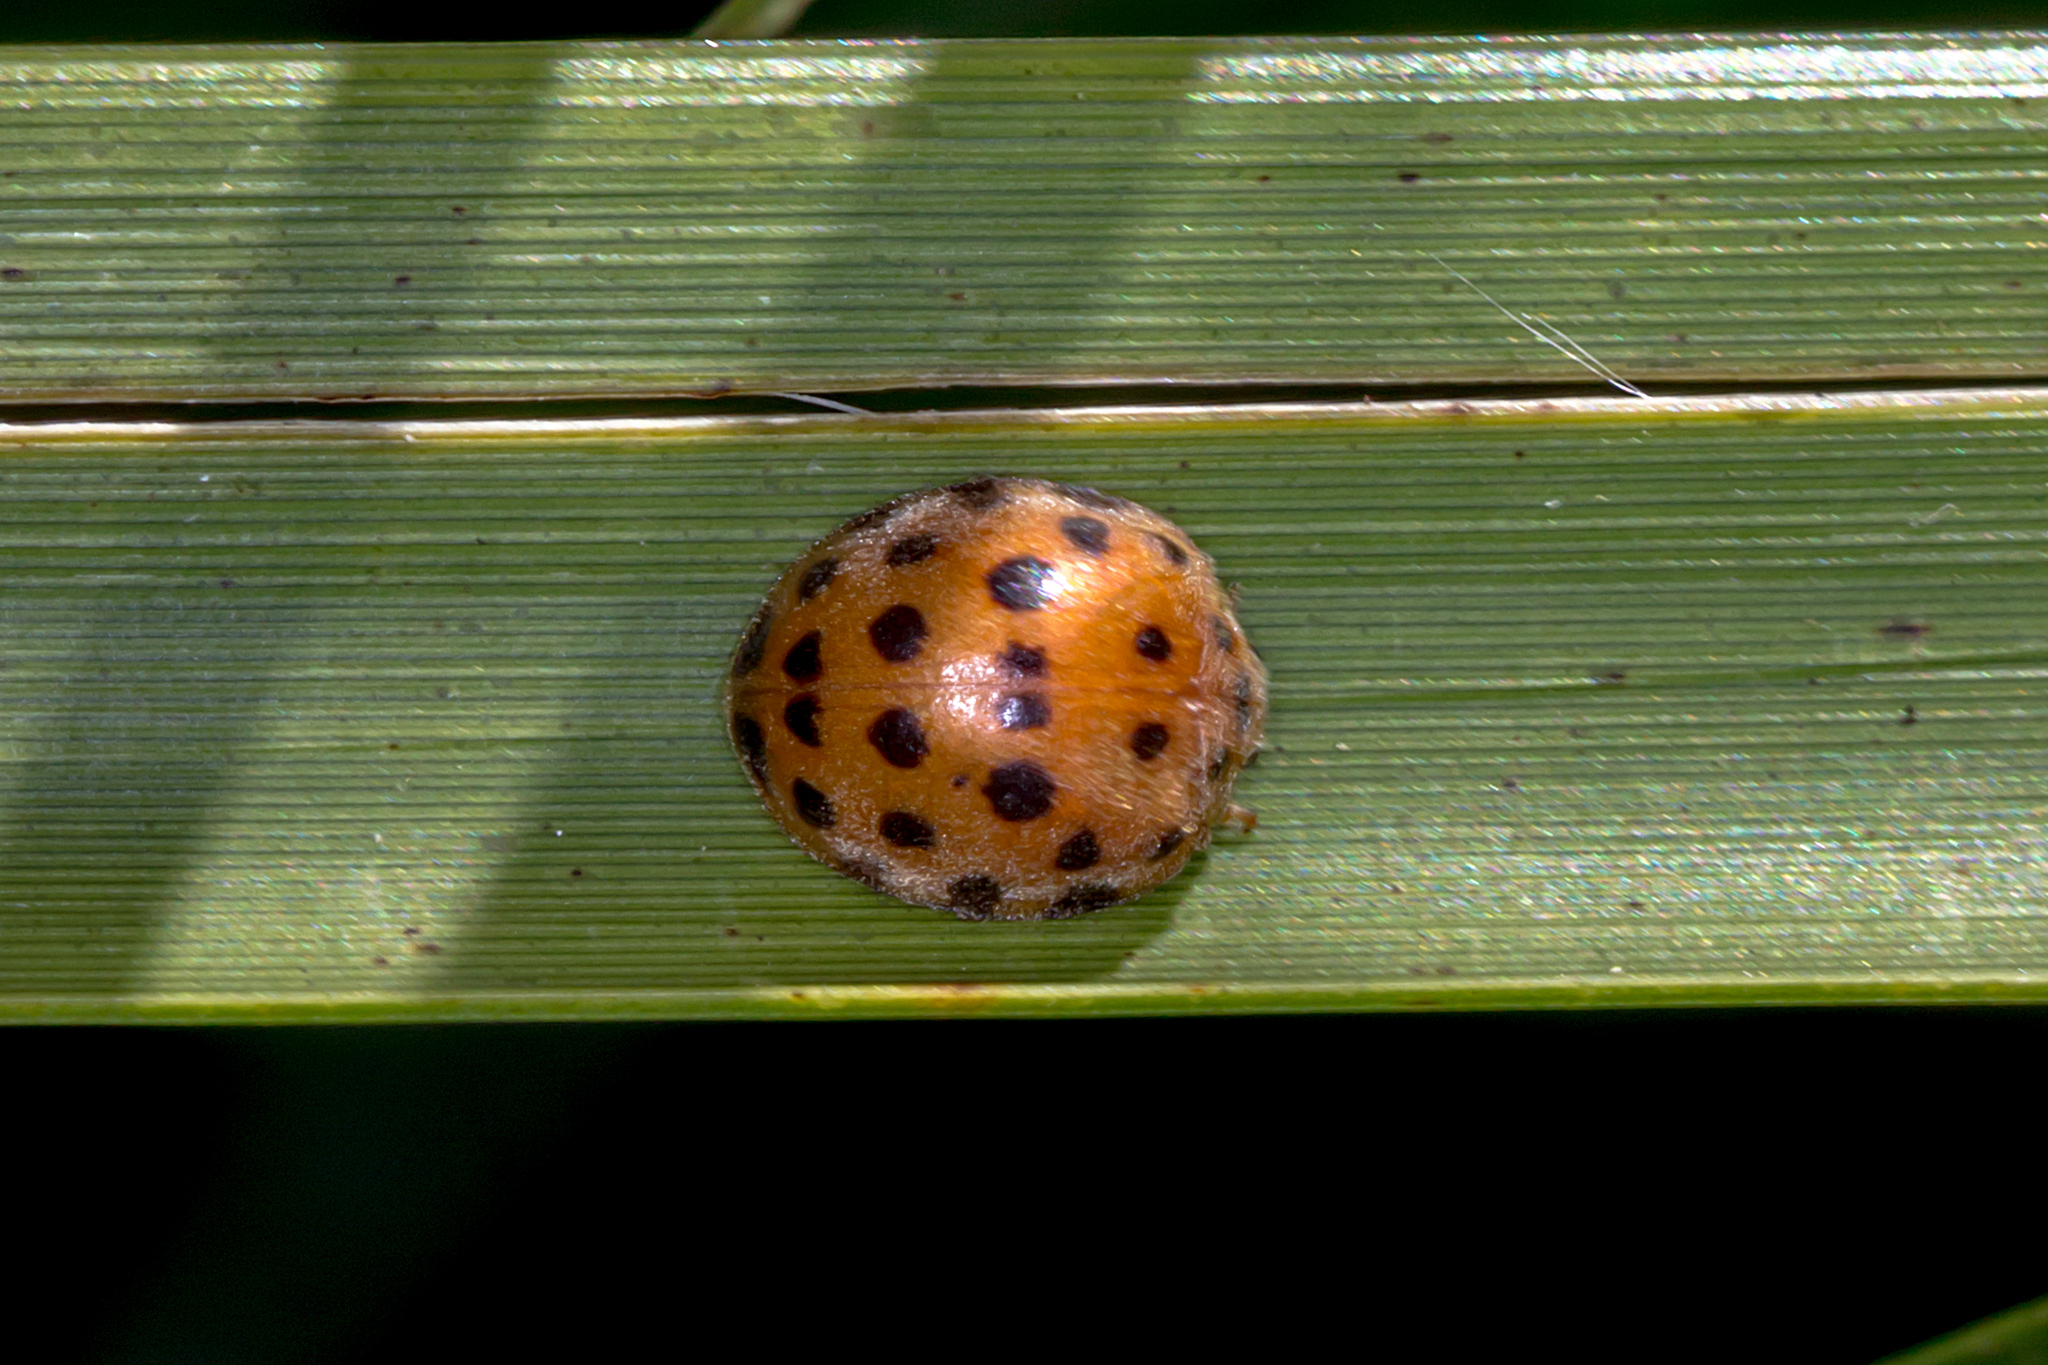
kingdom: Animalia
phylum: Arthropoda
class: Insecta
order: Coleoptera
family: Coccinellidae
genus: Henosepilachna
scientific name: Henosepilachna vigintioctopunctata
